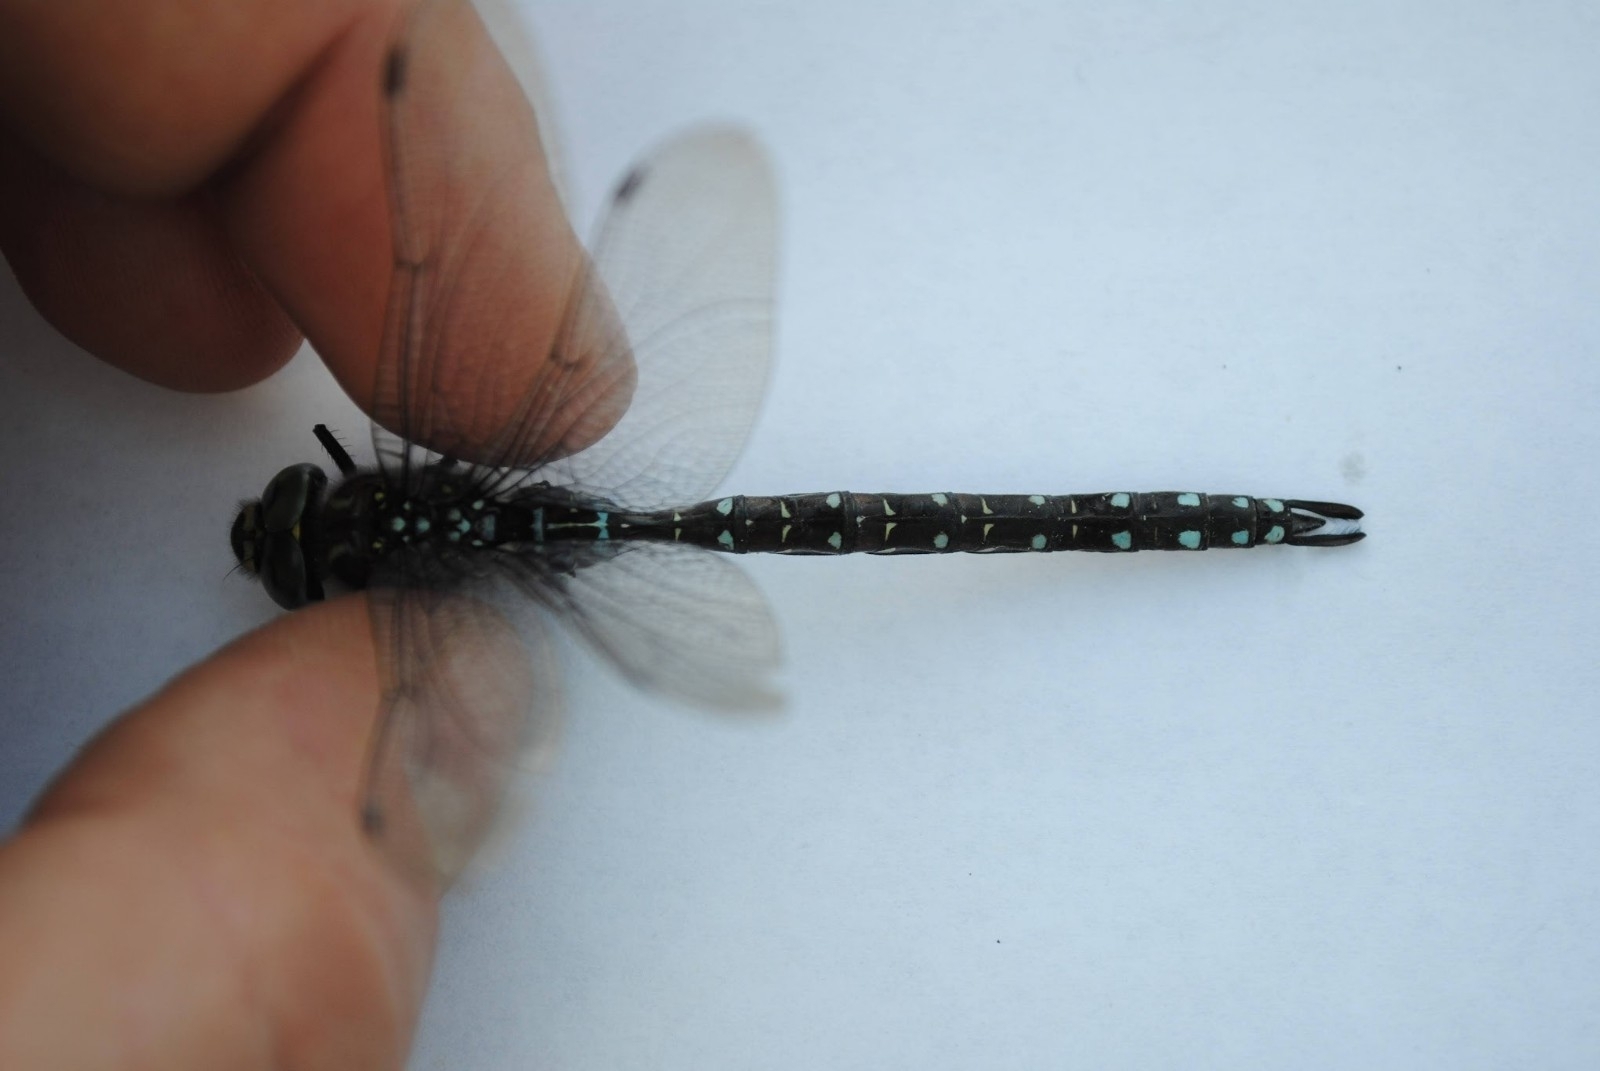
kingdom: Animalia
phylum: Arthropoda
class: Insecta
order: Odonata
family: Aeshnidae
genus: Aeshna
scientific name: Aeshna juncea
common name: Moorland hawker
